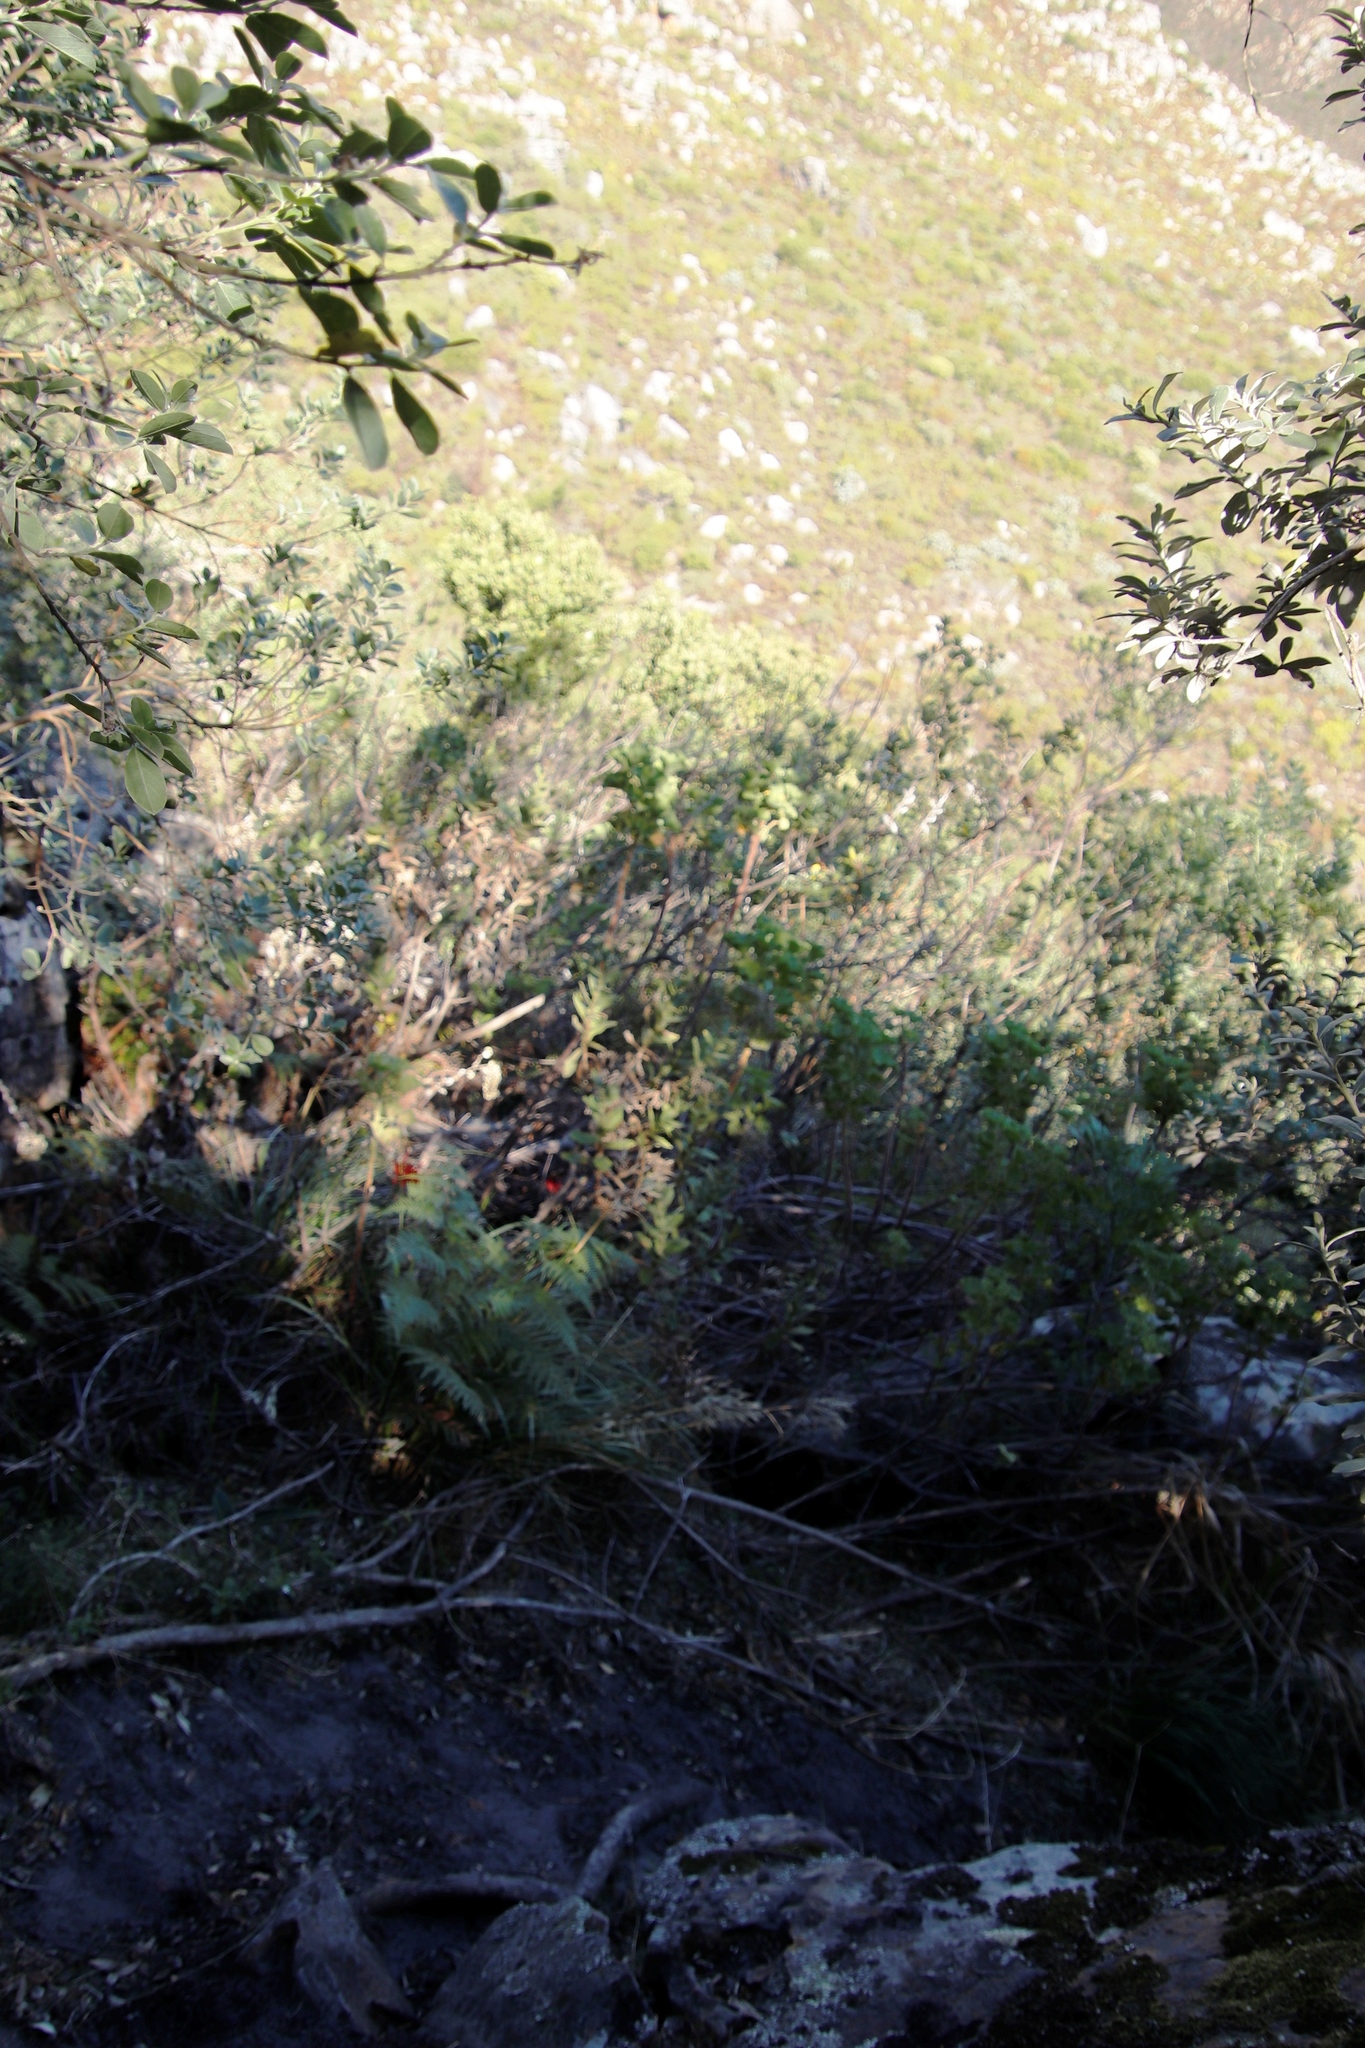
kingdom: Plantae
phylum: Tracheophyta
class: Polypodiopsida
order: Polypodiales
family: Dennstaedtiaceae
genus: Pteridium
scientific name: Pteridium aquilinum
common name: Bracken
